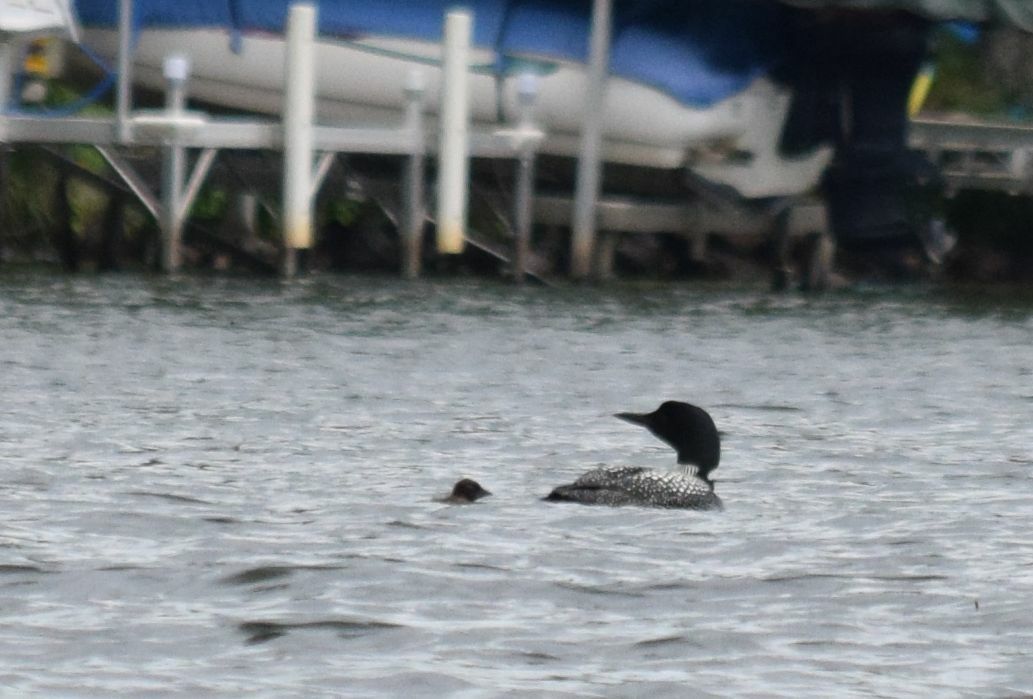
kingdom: Animalia
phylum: Chordata
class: Aves
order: Gaviiformes
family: Gaviidae
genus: Gavia
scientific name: Gavia immer
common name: Common loon
